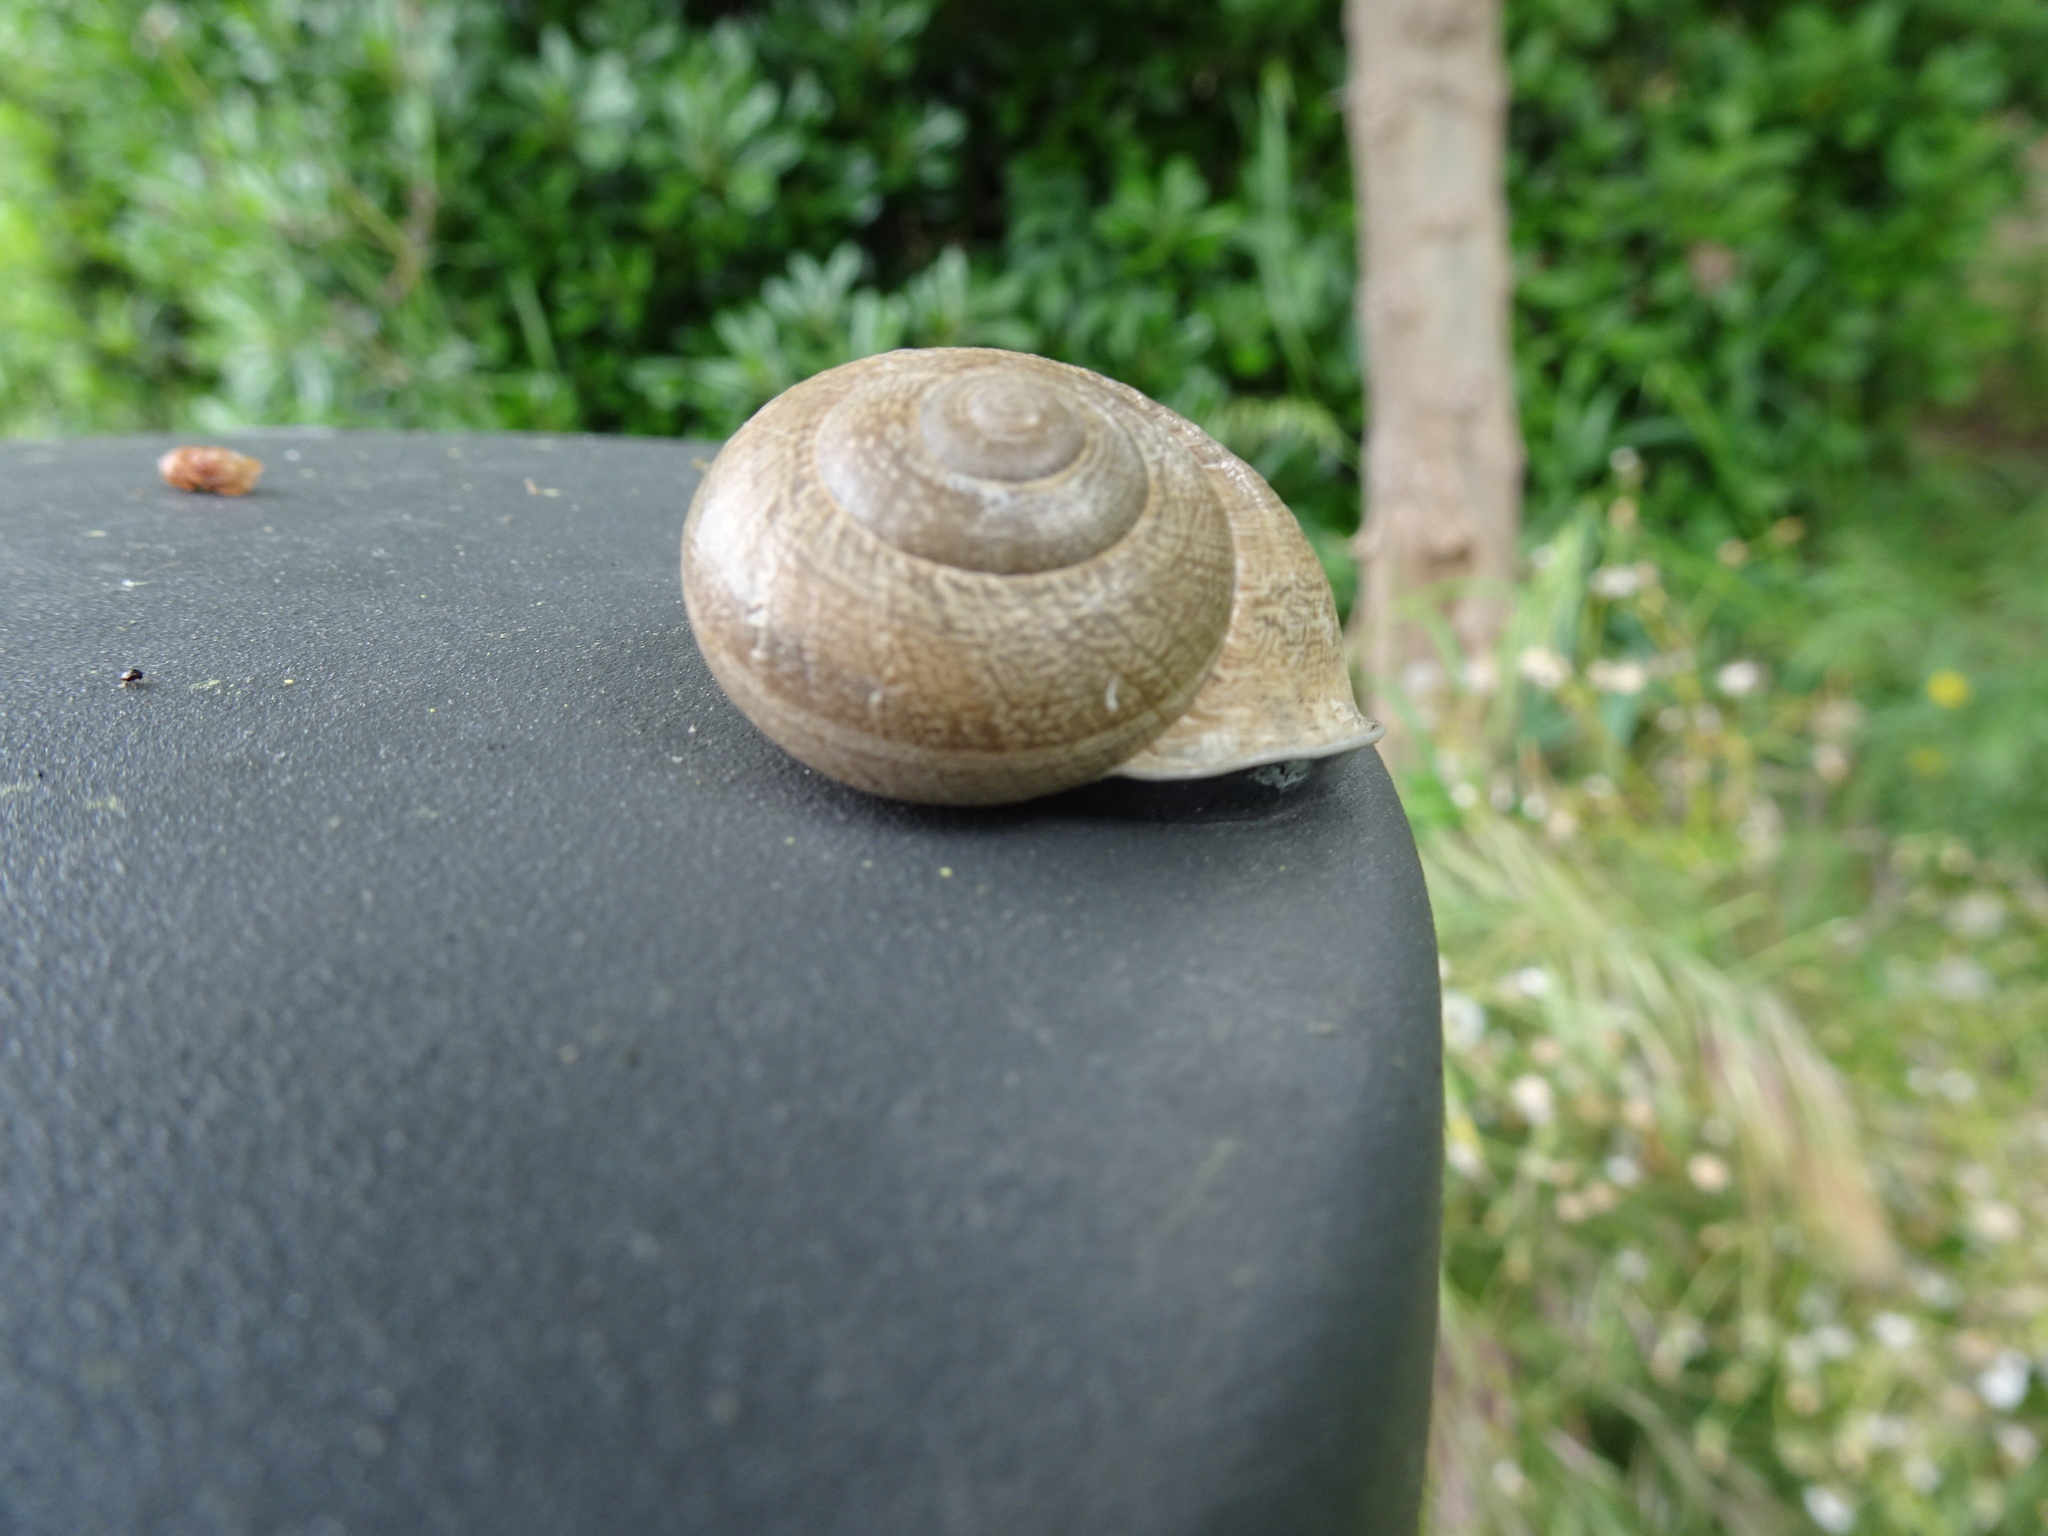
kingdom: Animalia
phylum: Mollusca
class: Gastropoda
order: Stylommatophora
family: Helicidae
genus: Eobania
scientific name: Eobania vermiculata
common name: Chocolateband snail
